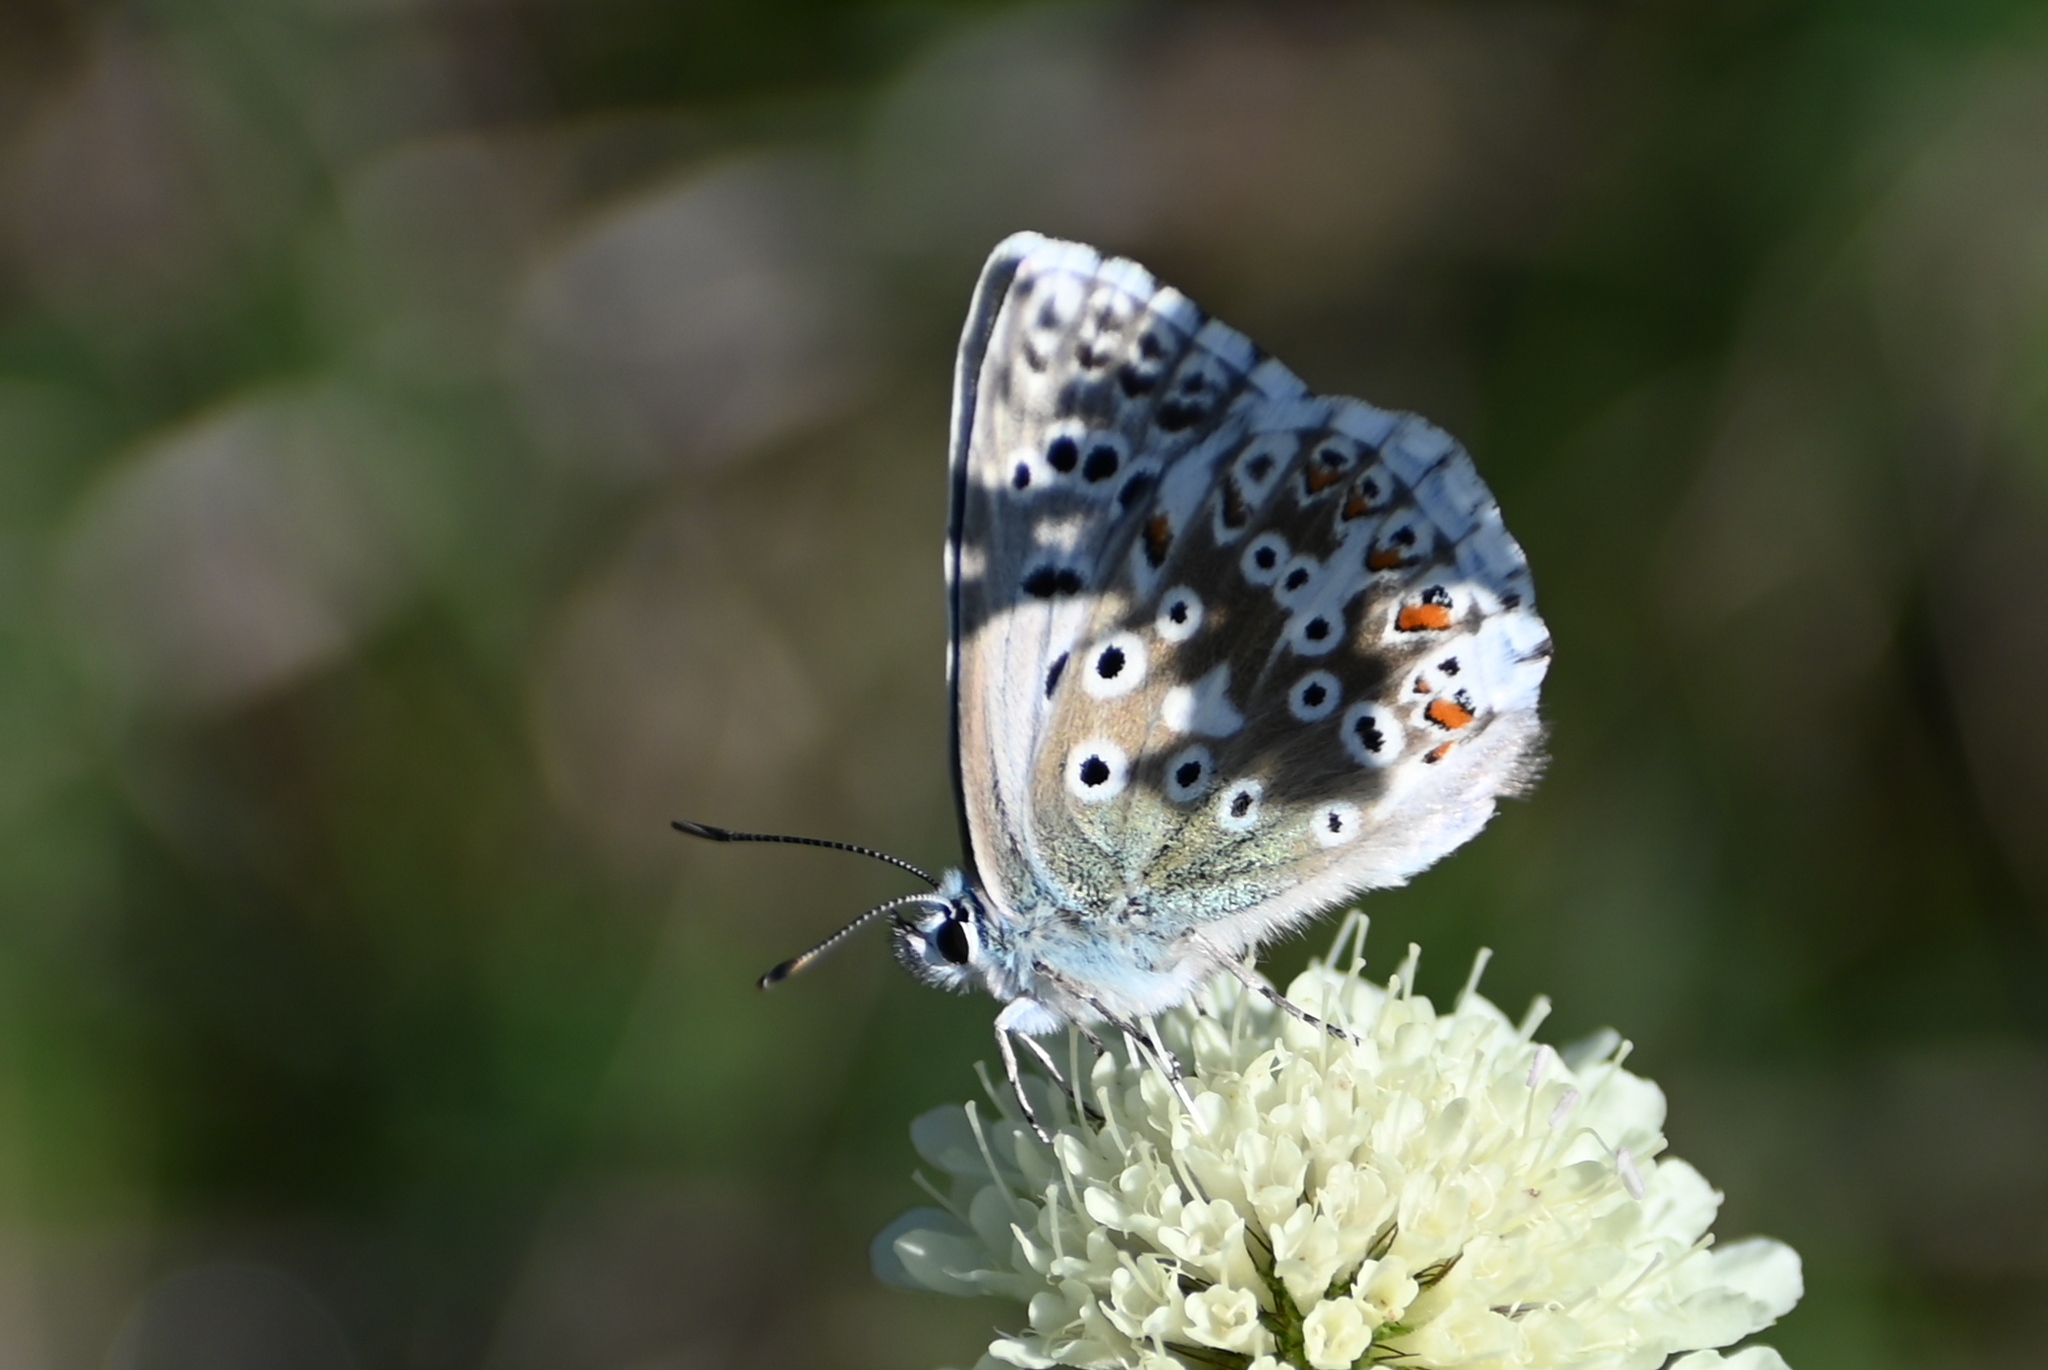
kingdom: Animalia
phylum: Arthropoda
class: Insecta
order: Lepidoptera
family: Lycaenidae
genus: Lysandra
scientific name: Lysandra coridon
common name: Chalkhill blue
